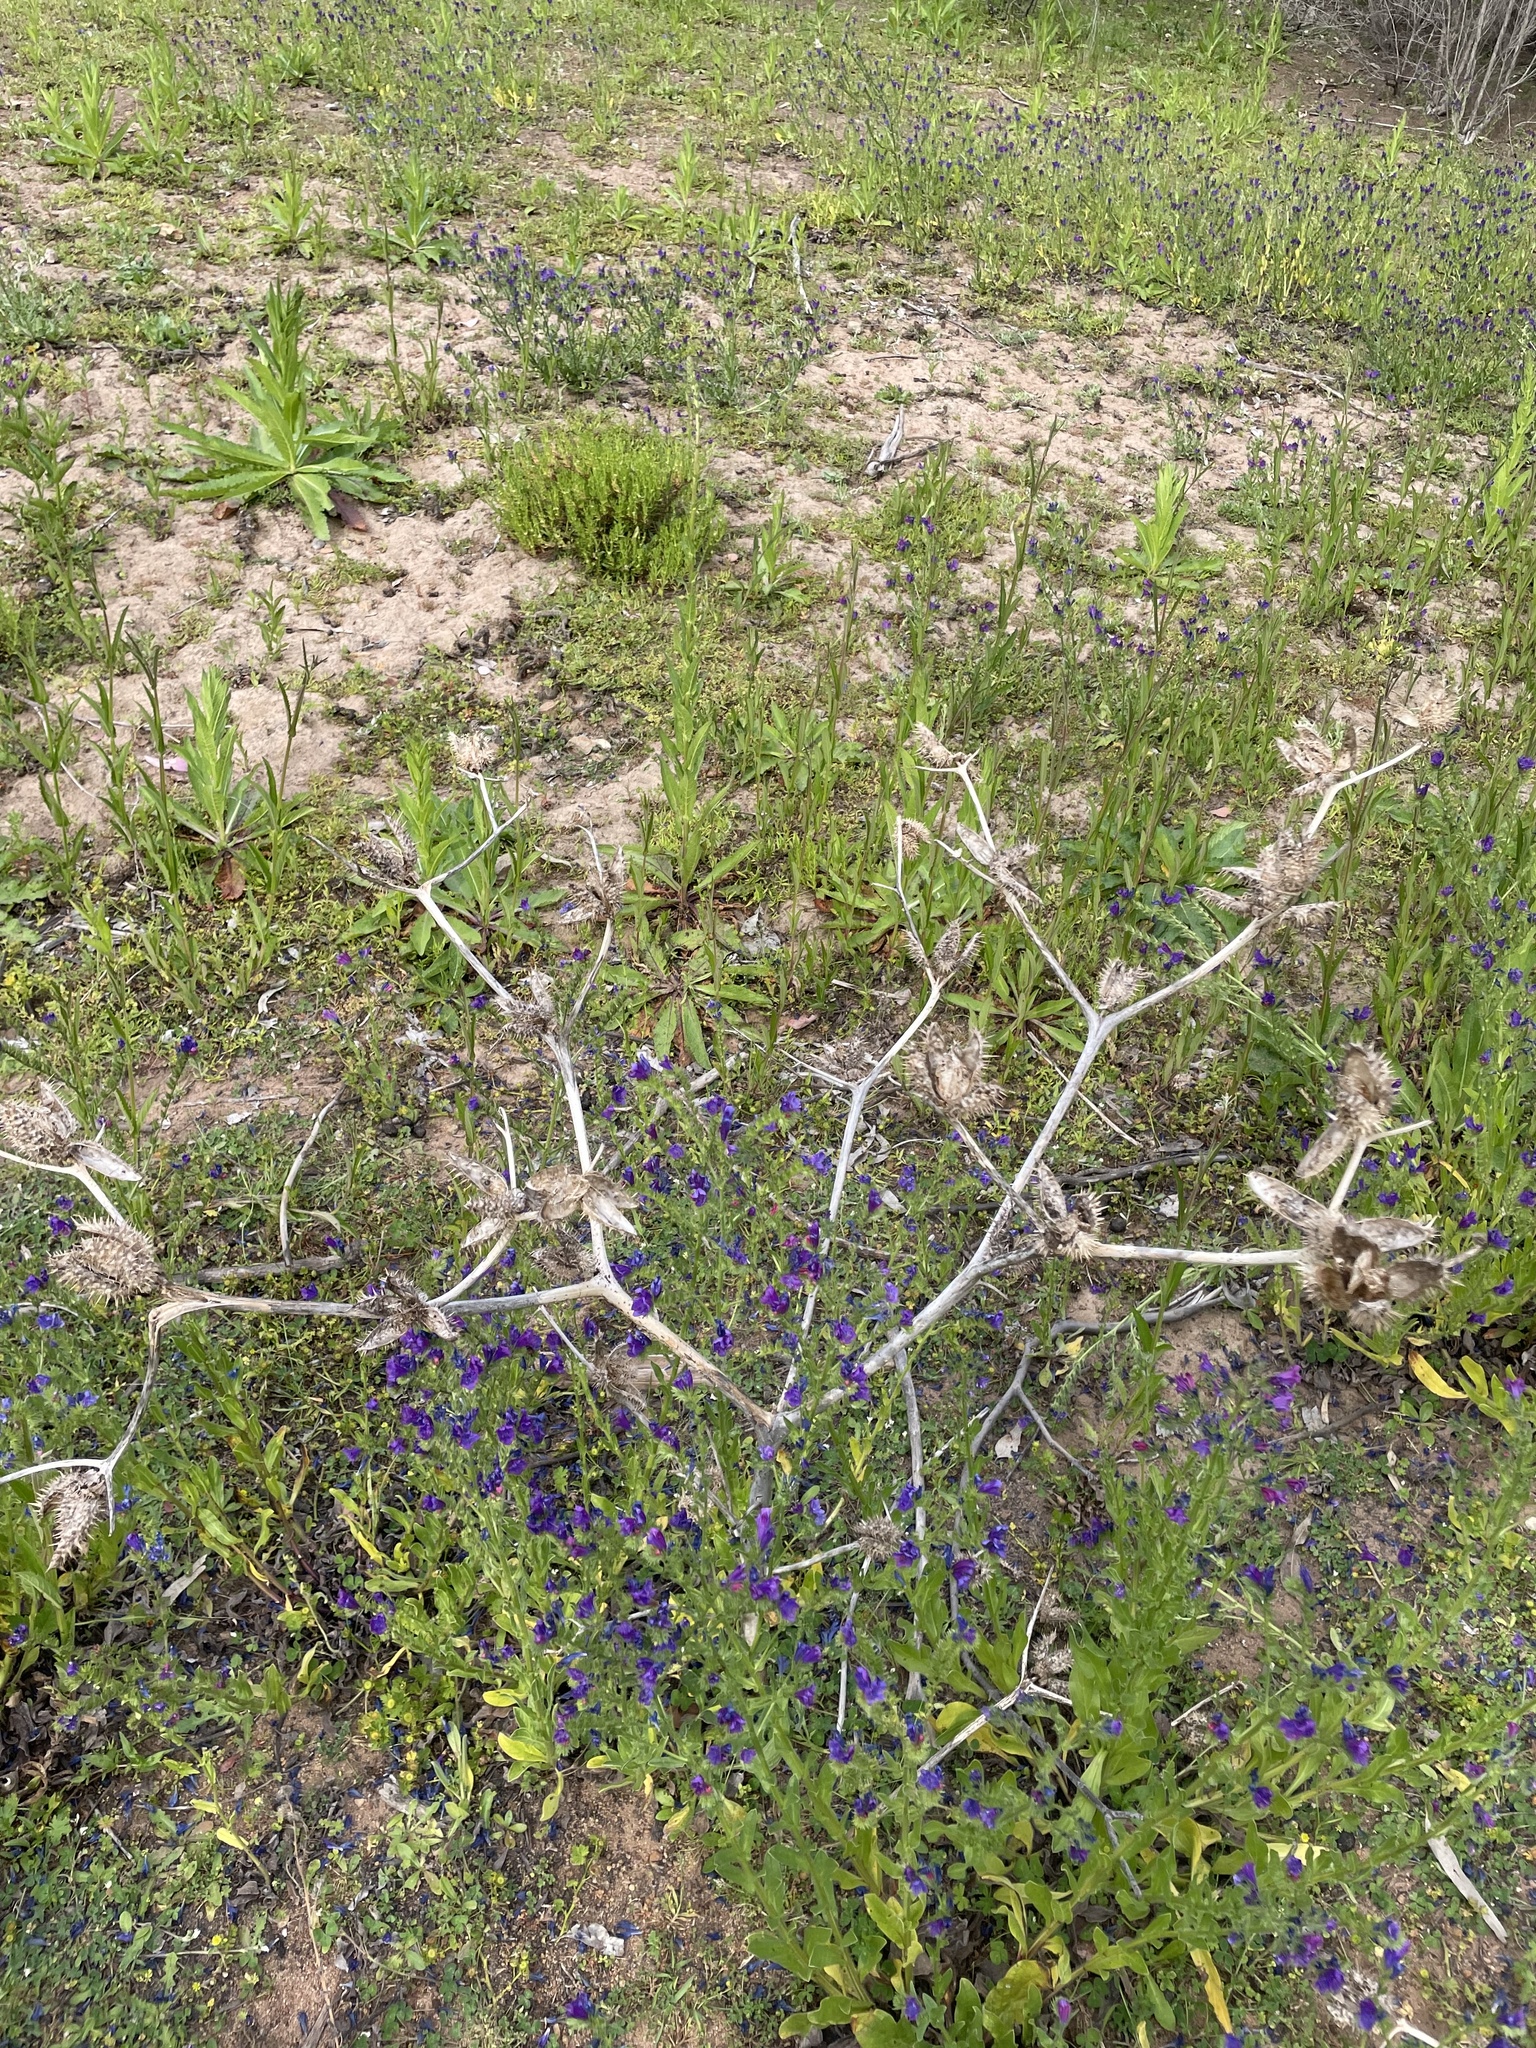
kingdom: Plantae
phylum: Tracheophyta
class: Magnoliopsida
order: Solanales
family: Solanaceae
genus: Datura
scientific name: Datura stramonium
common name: Thorn-apple
